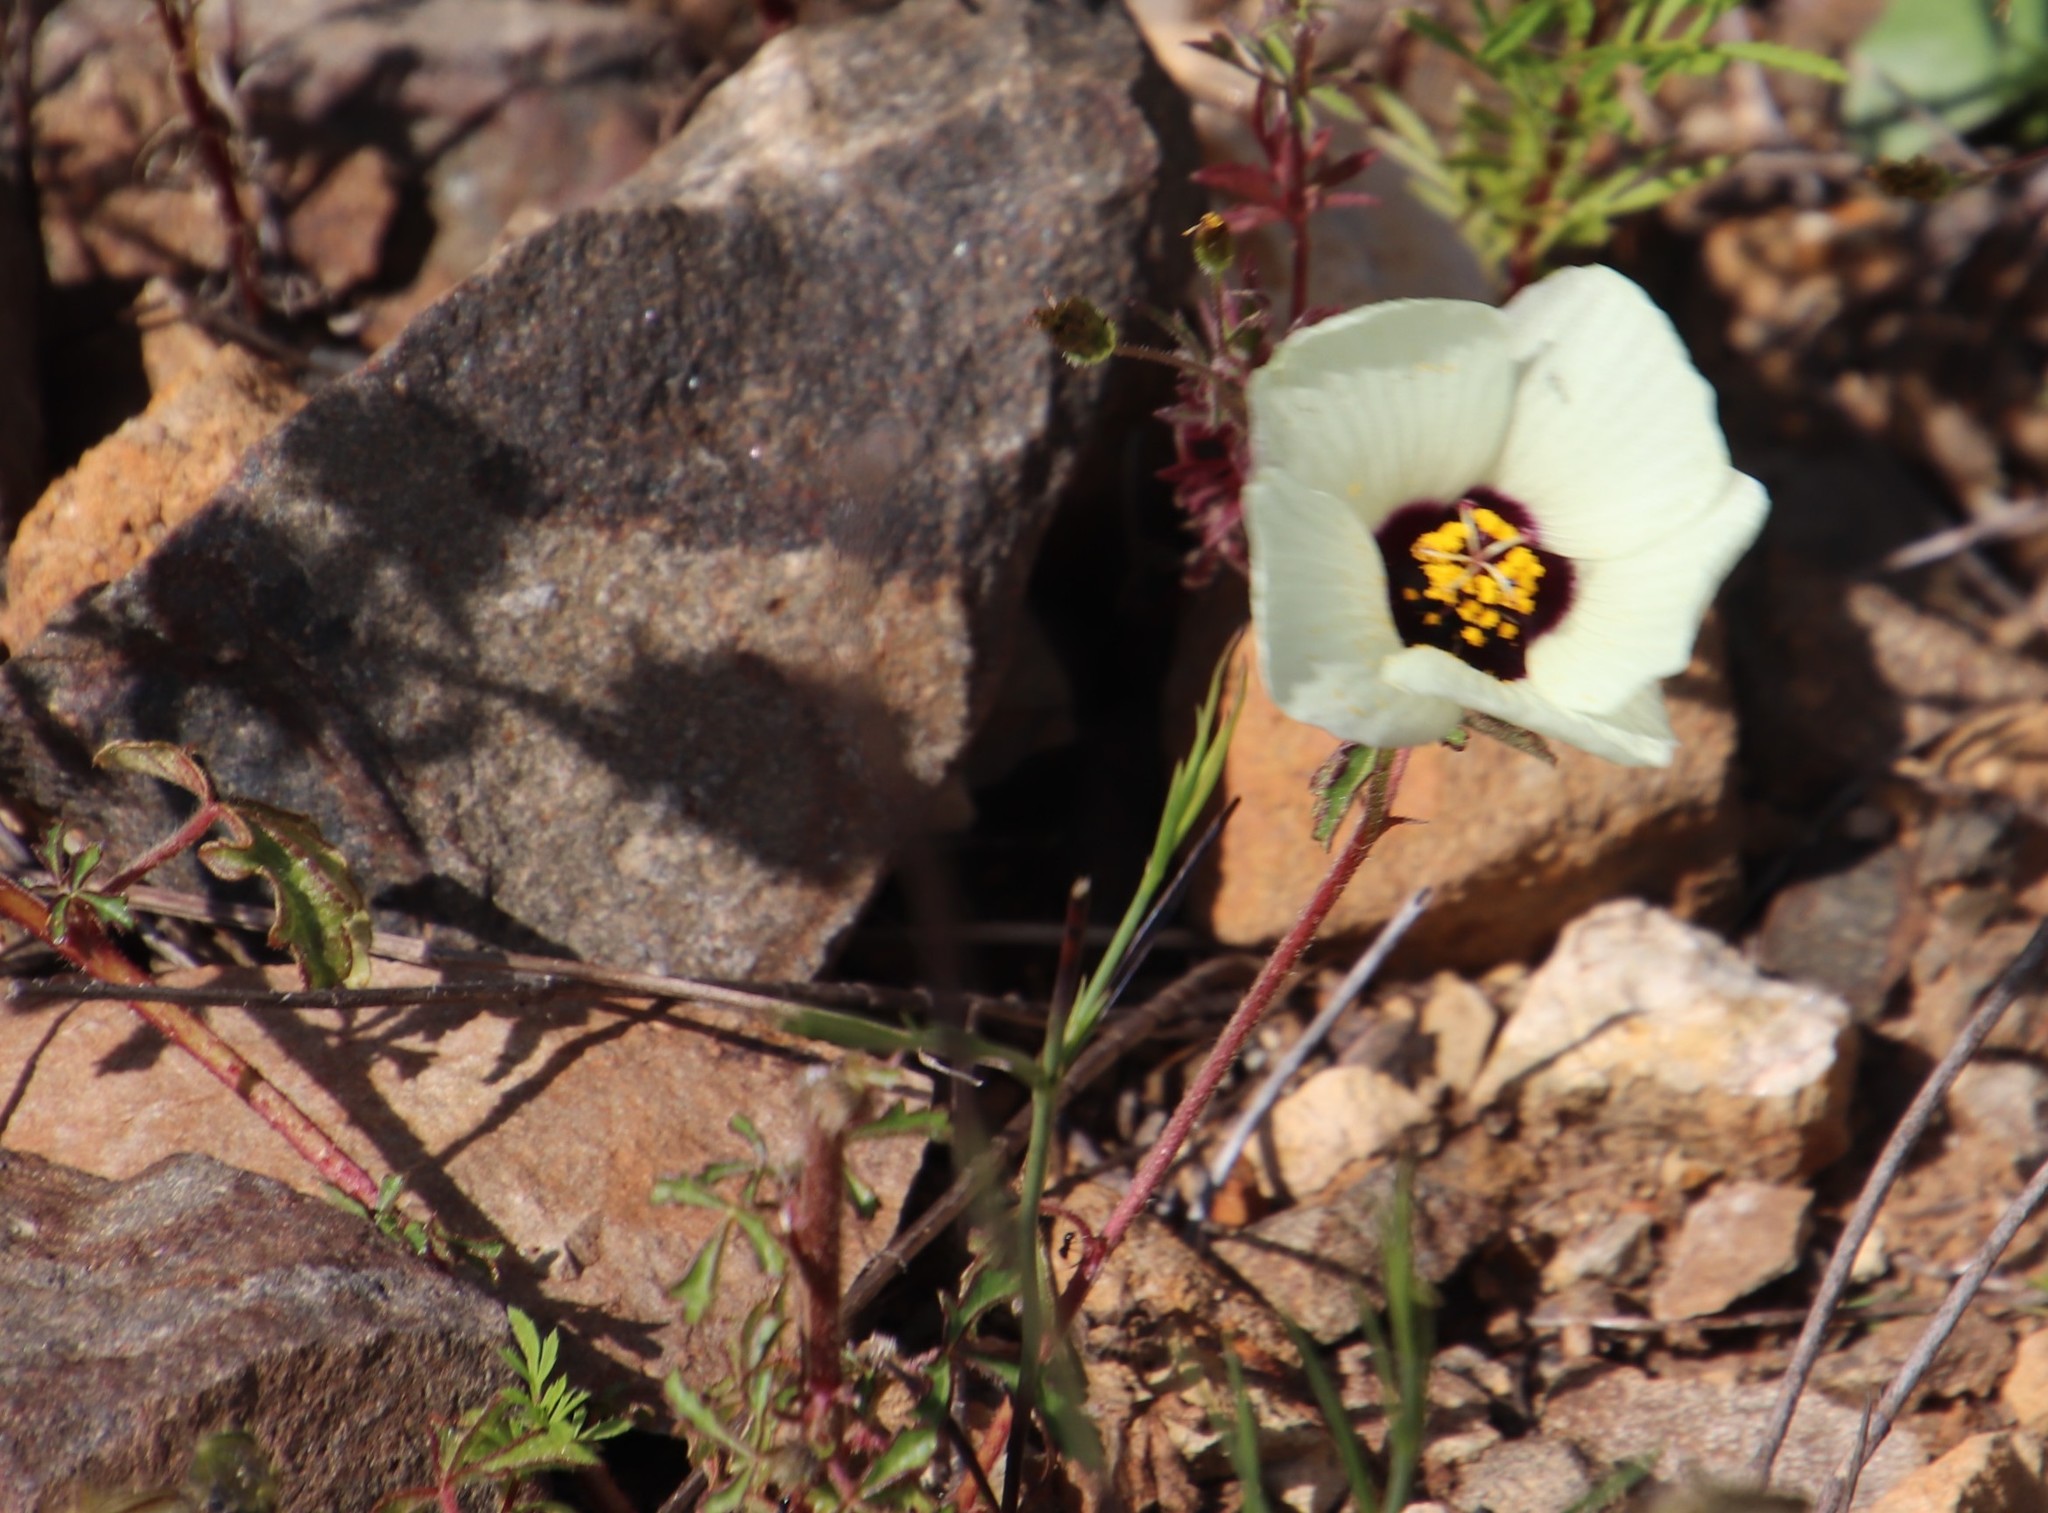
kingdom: Plantae
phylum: Tracheophyta
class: Magnoliopsida
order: Malvales
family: Malvaceae
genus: Hibiscus
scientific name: Hibiscus trionum
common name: Bladder ketmia
